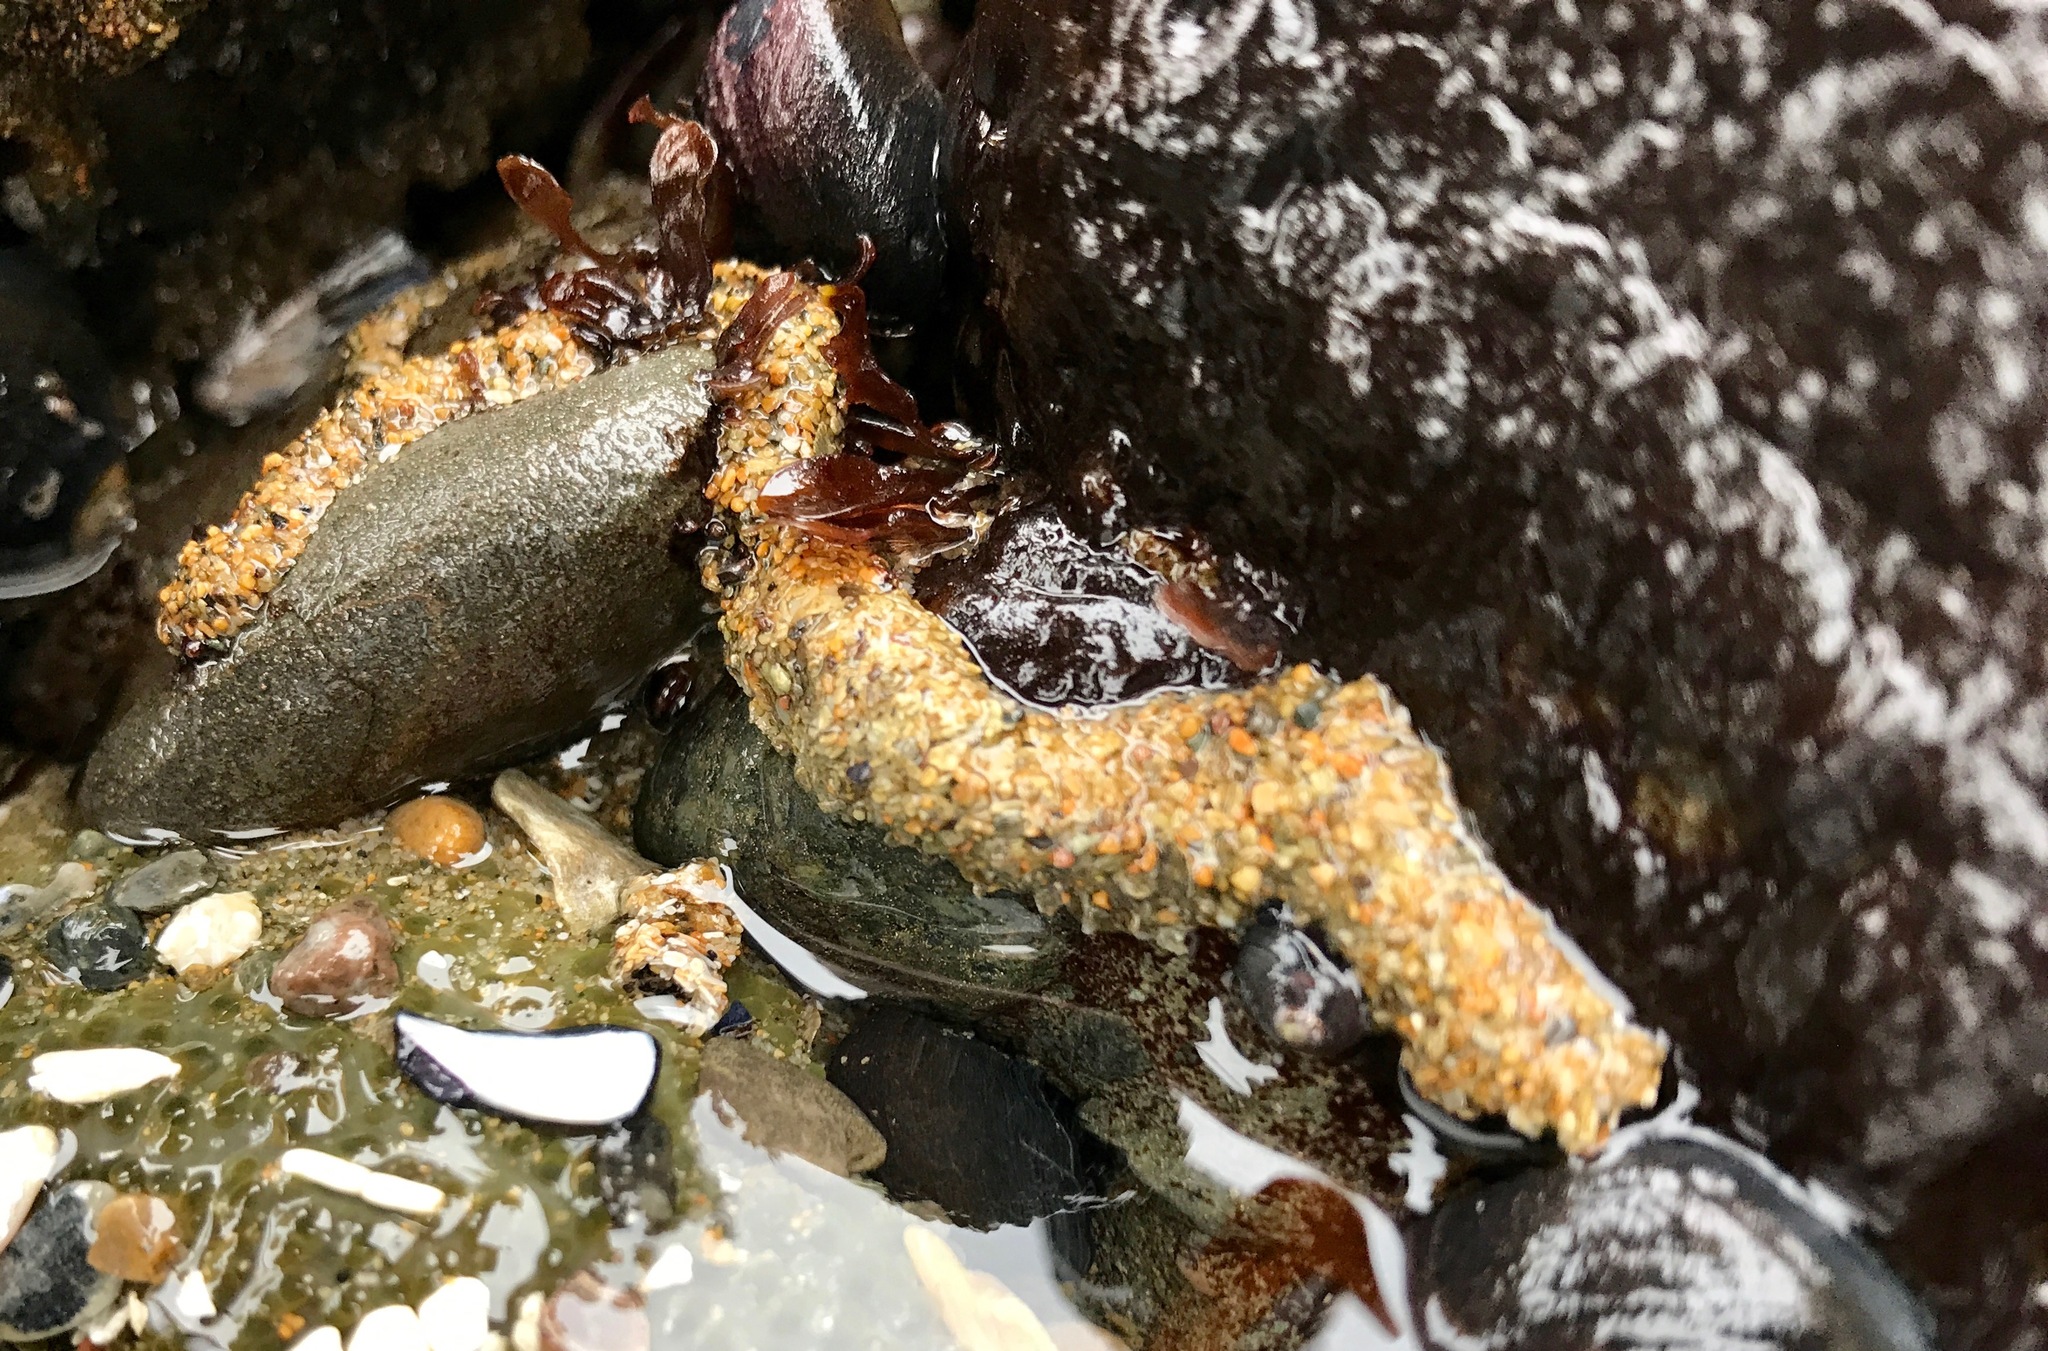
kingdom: Animalia
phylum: Annelida
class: Polychaeta
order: Sabellida
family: Sabellariidae
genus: Phragmatopoma
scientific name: Phragmatopoma californica
